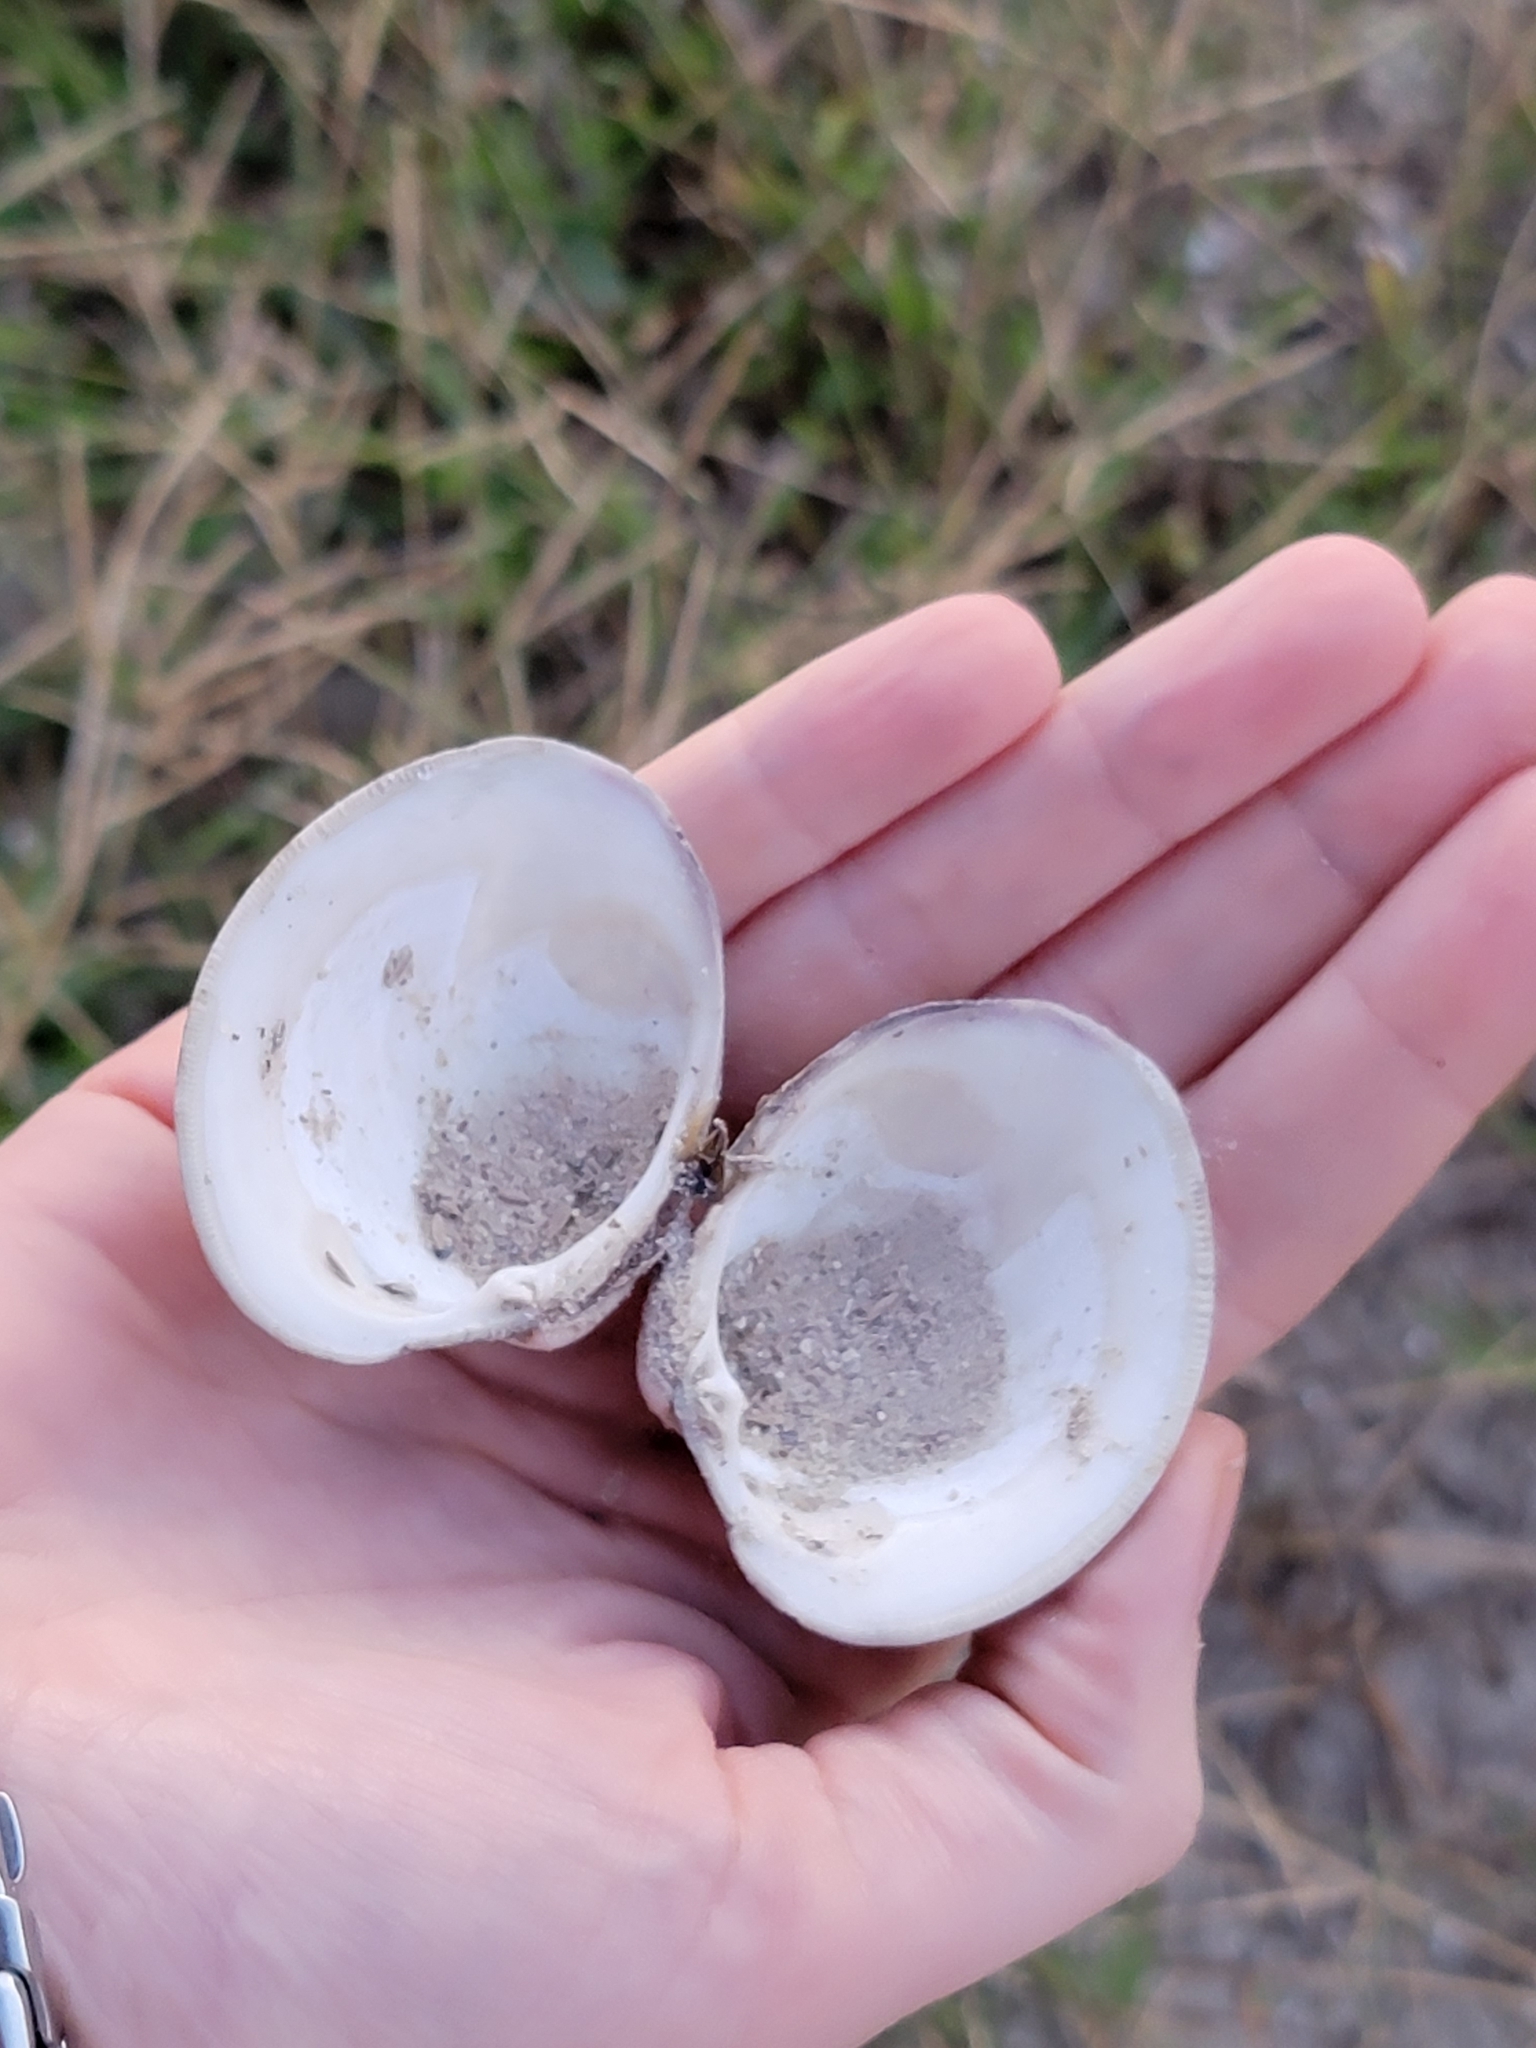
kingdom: Animalia
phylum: Mollusca
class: Bivalvia
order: Venerida
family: Veneridae
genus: Mercenaria
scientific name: Mercenaria mercenaria
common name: American hard-shelled clam
